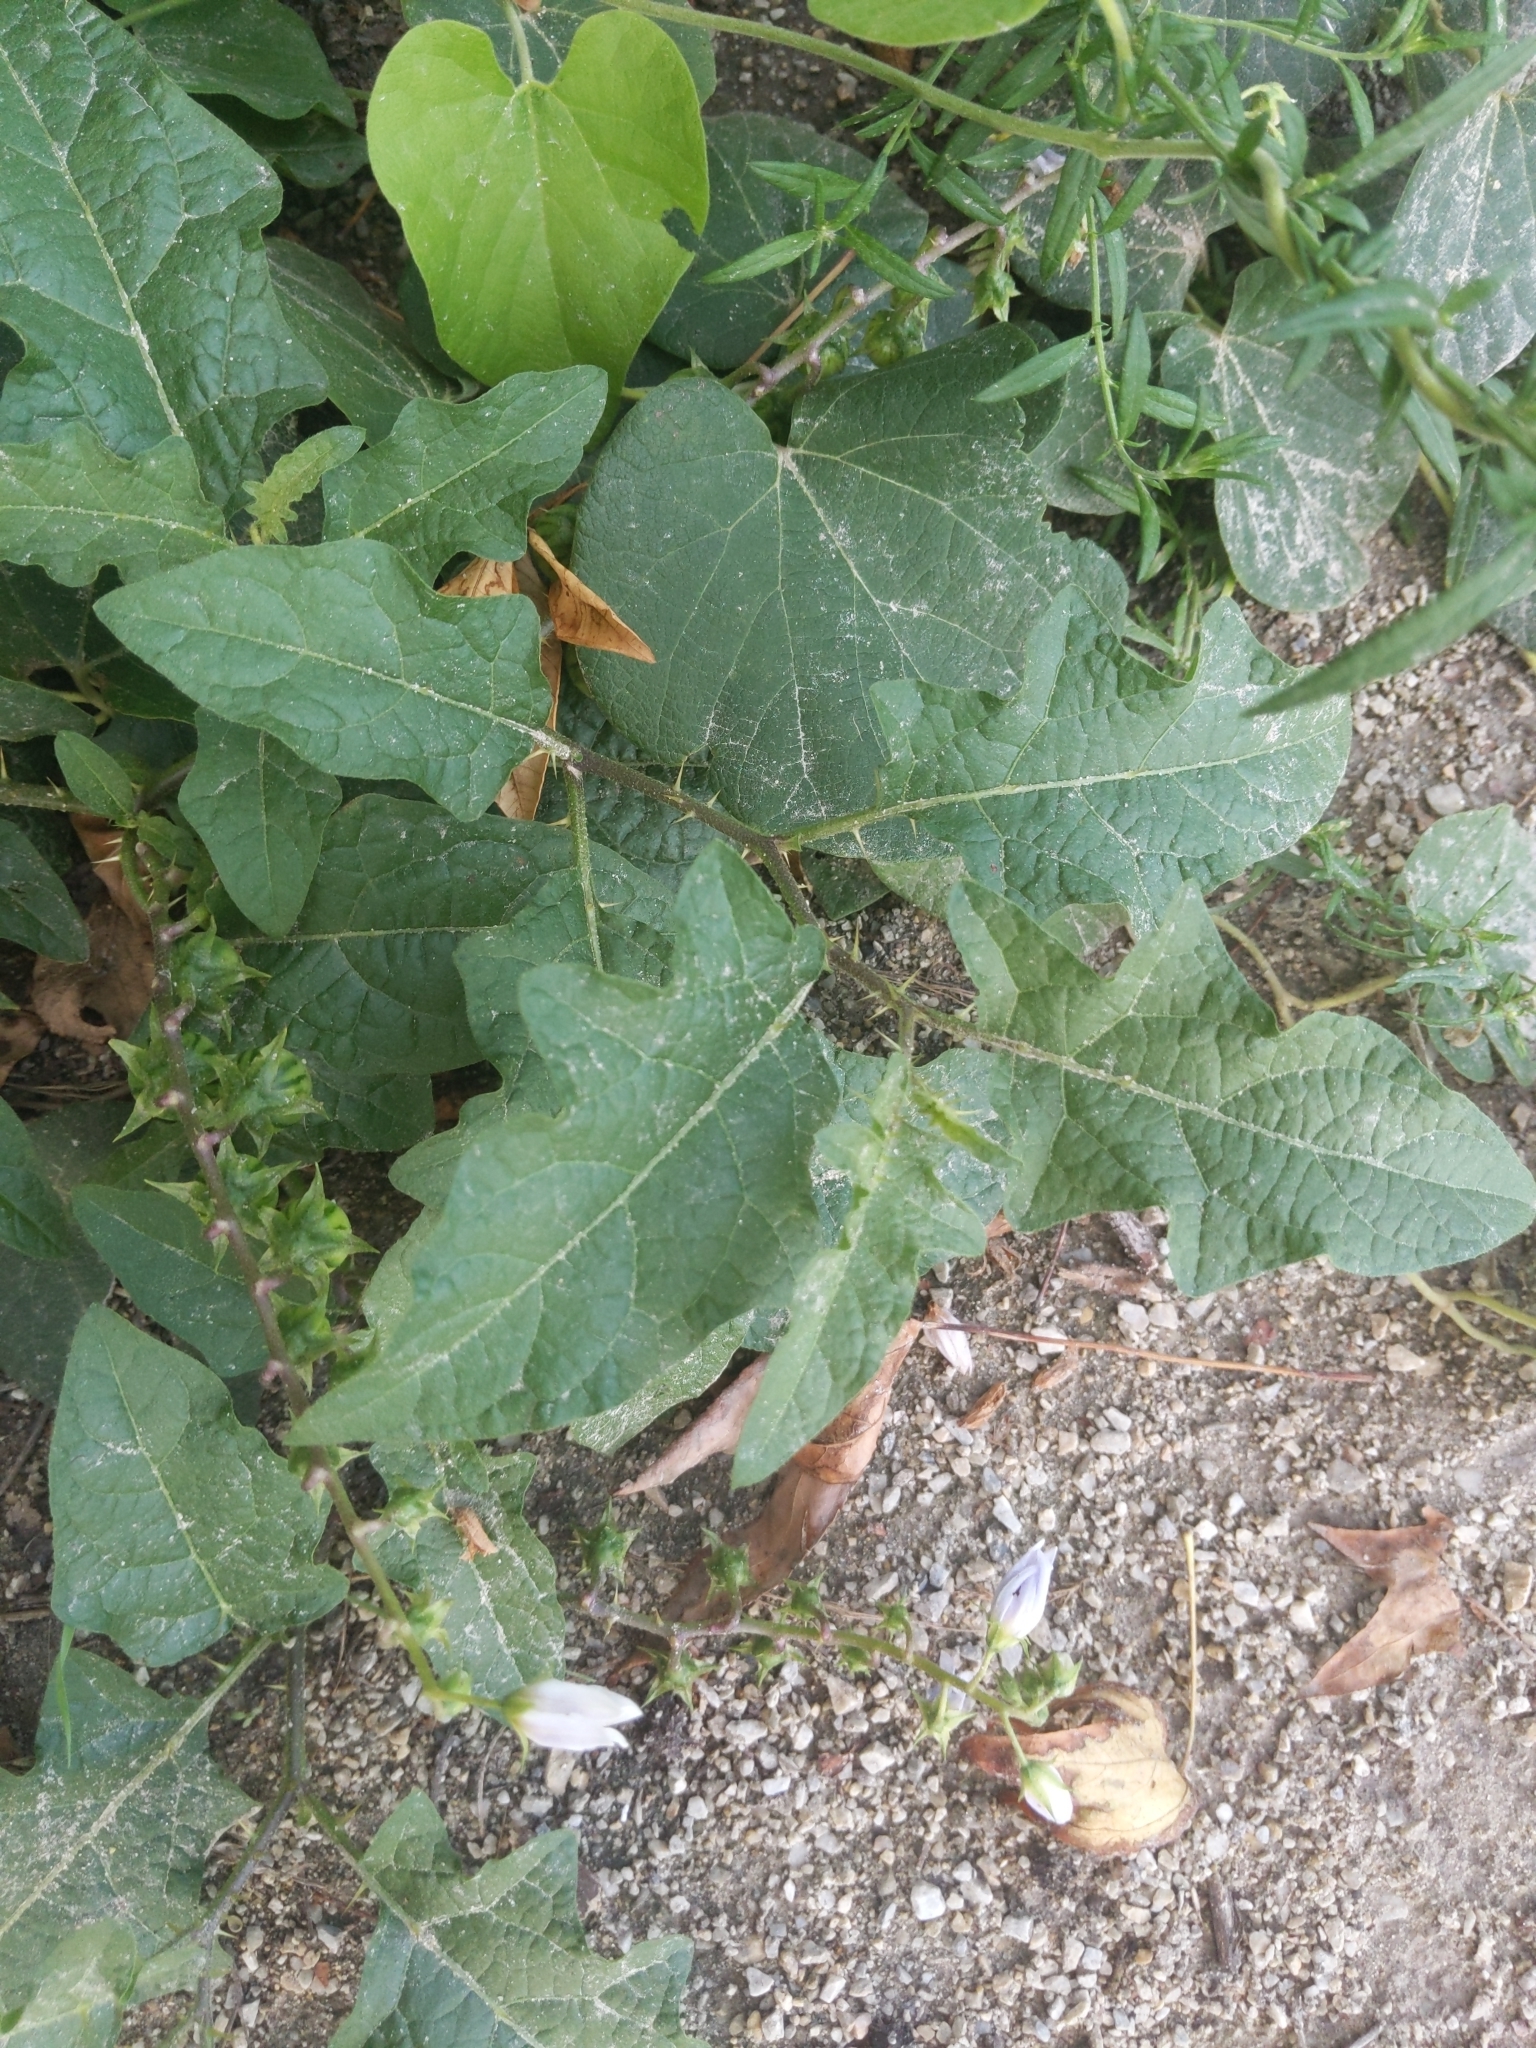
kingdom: Plantae
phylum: Tracheophyta
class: Magnoliopsida
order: Solanales
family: Solanaceae
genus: Solanum
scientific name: Solanum carolinense
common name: Horse-nettle
